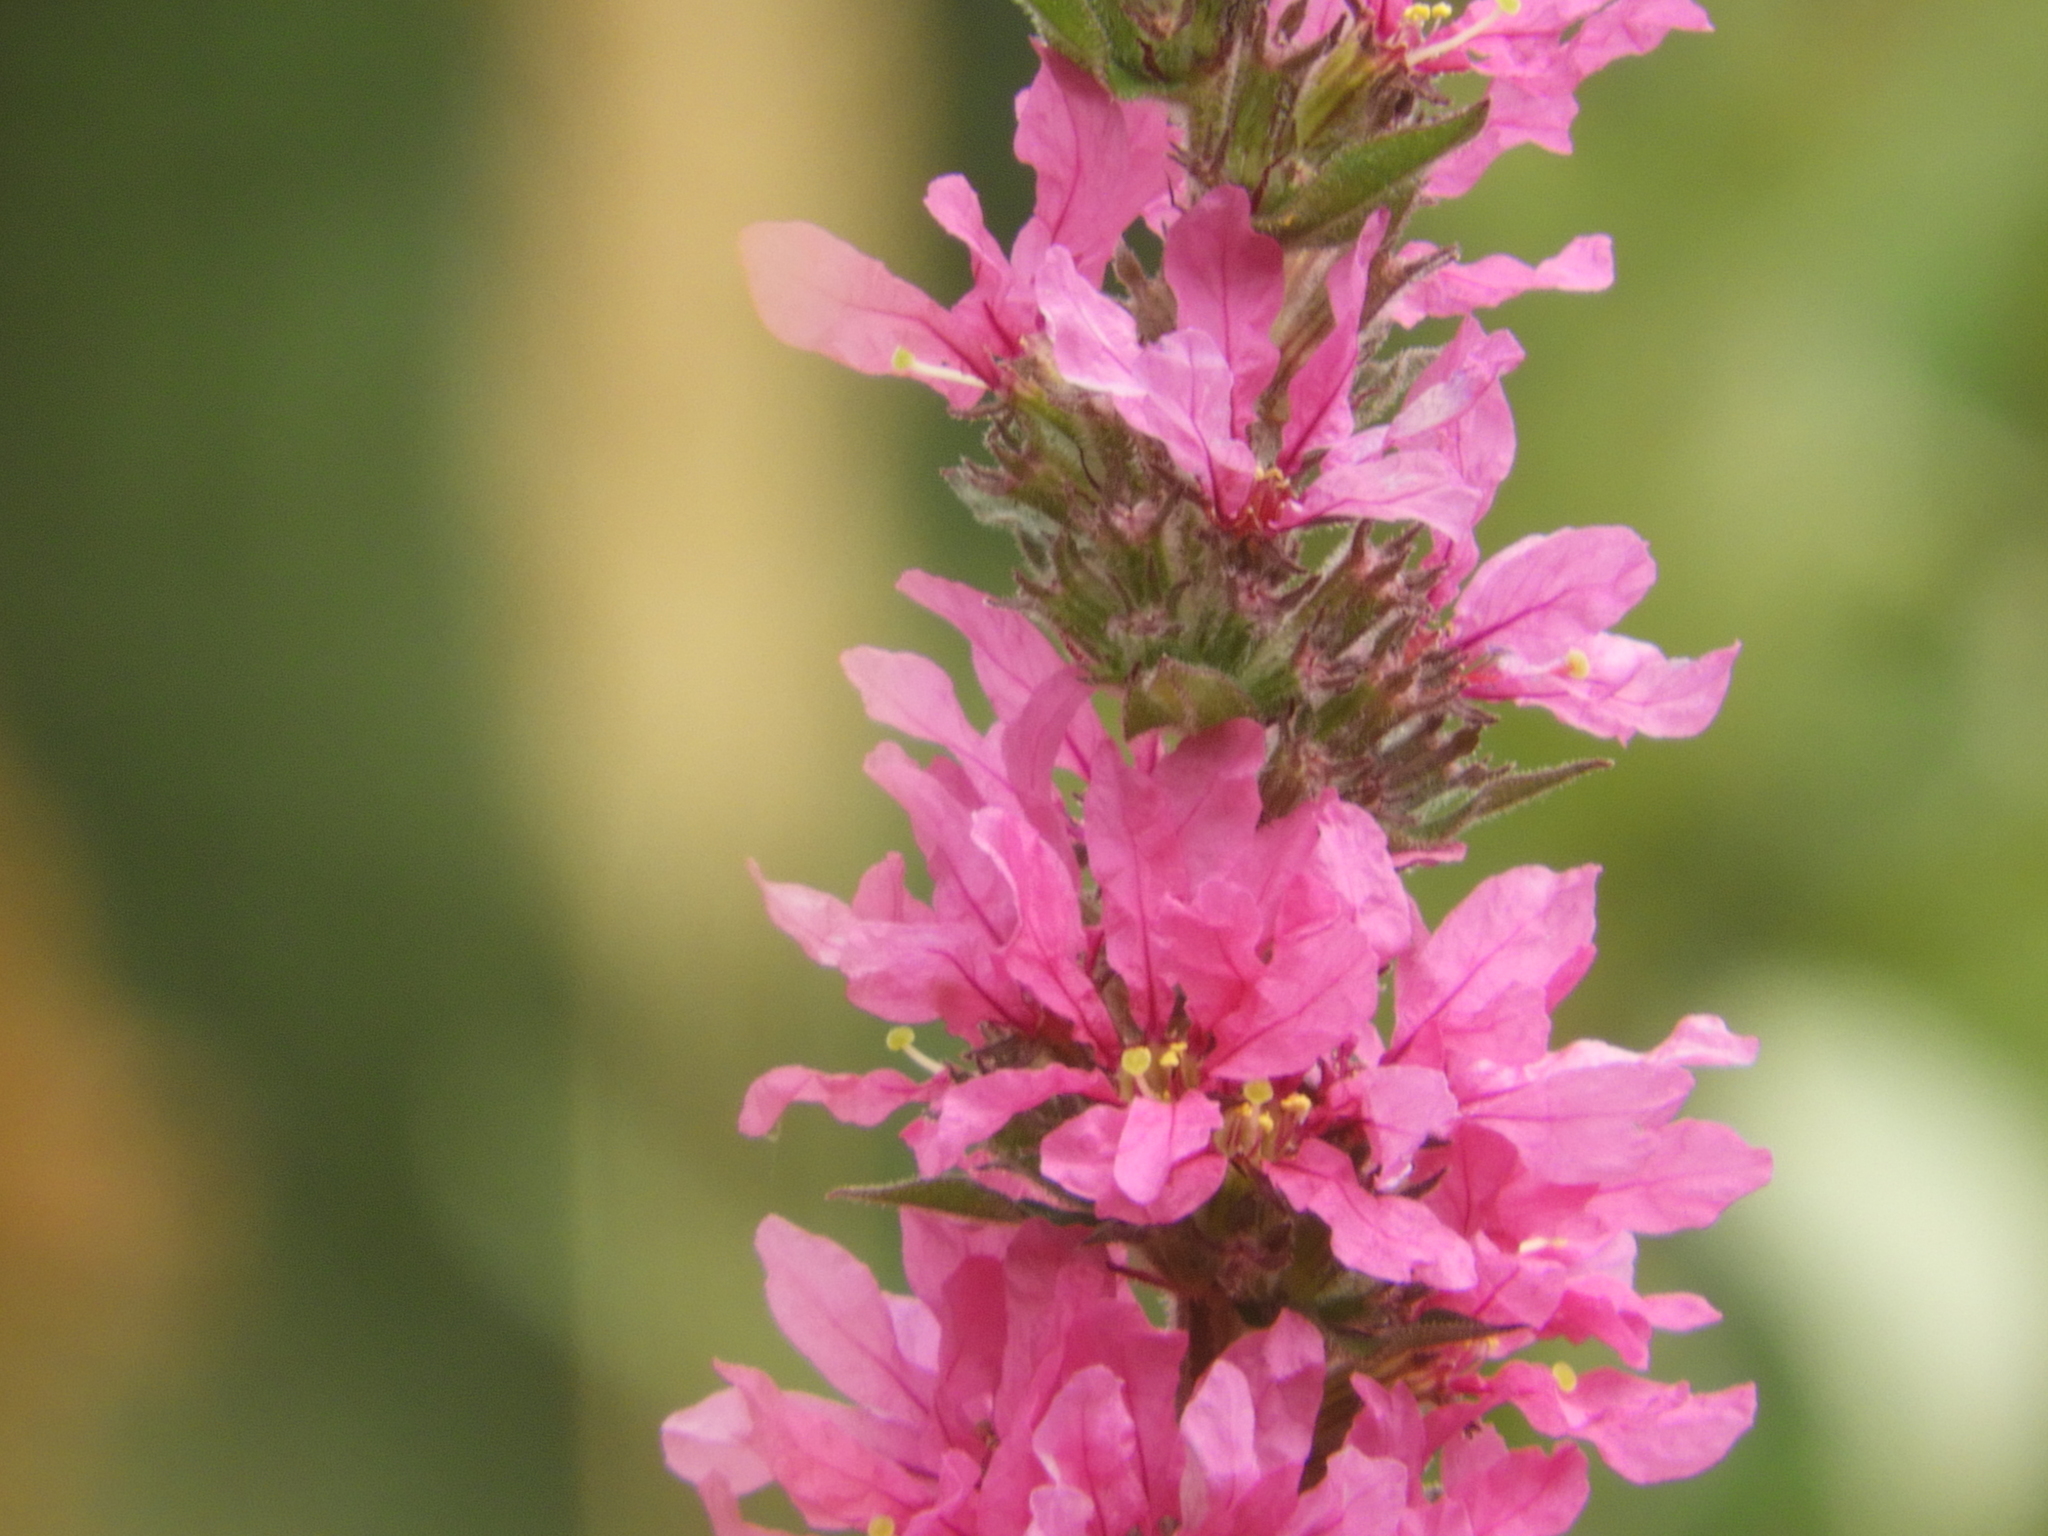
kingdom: Plantae
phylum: Tracheophyta
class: Magnoliopsida
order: Myrtales
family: Lythraceae
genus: Lythrum
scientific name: Lythrum salicaria
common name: Purple loosestrife
